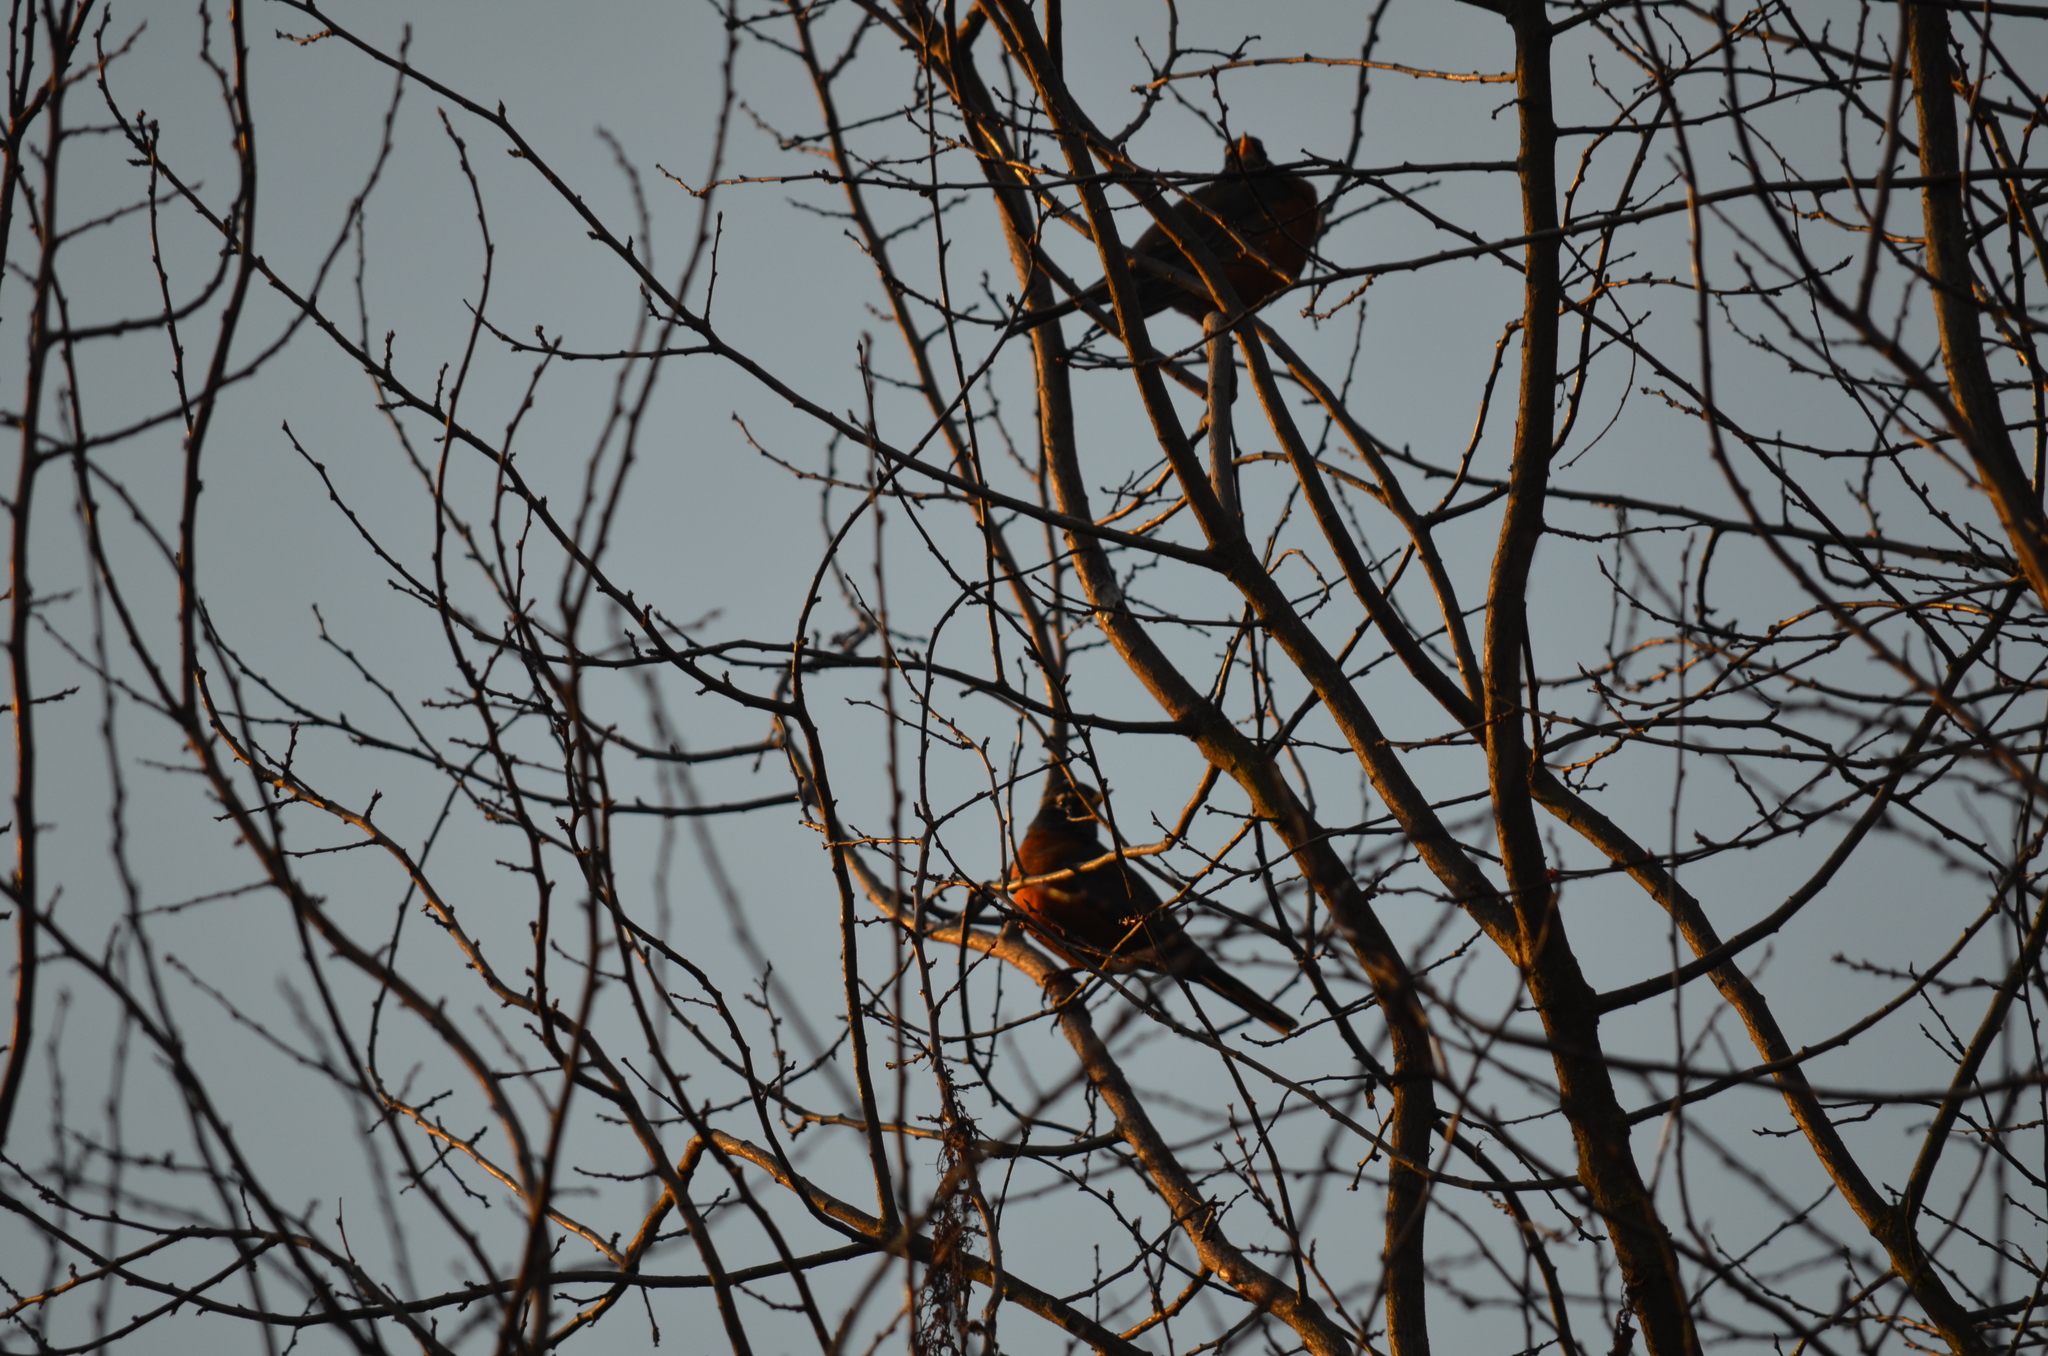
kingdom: Animalia
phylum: Chordata
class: Aves
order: Passeriformes
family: Turdidae
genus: Turdus
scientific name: Turdus migratorius
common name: American robin
